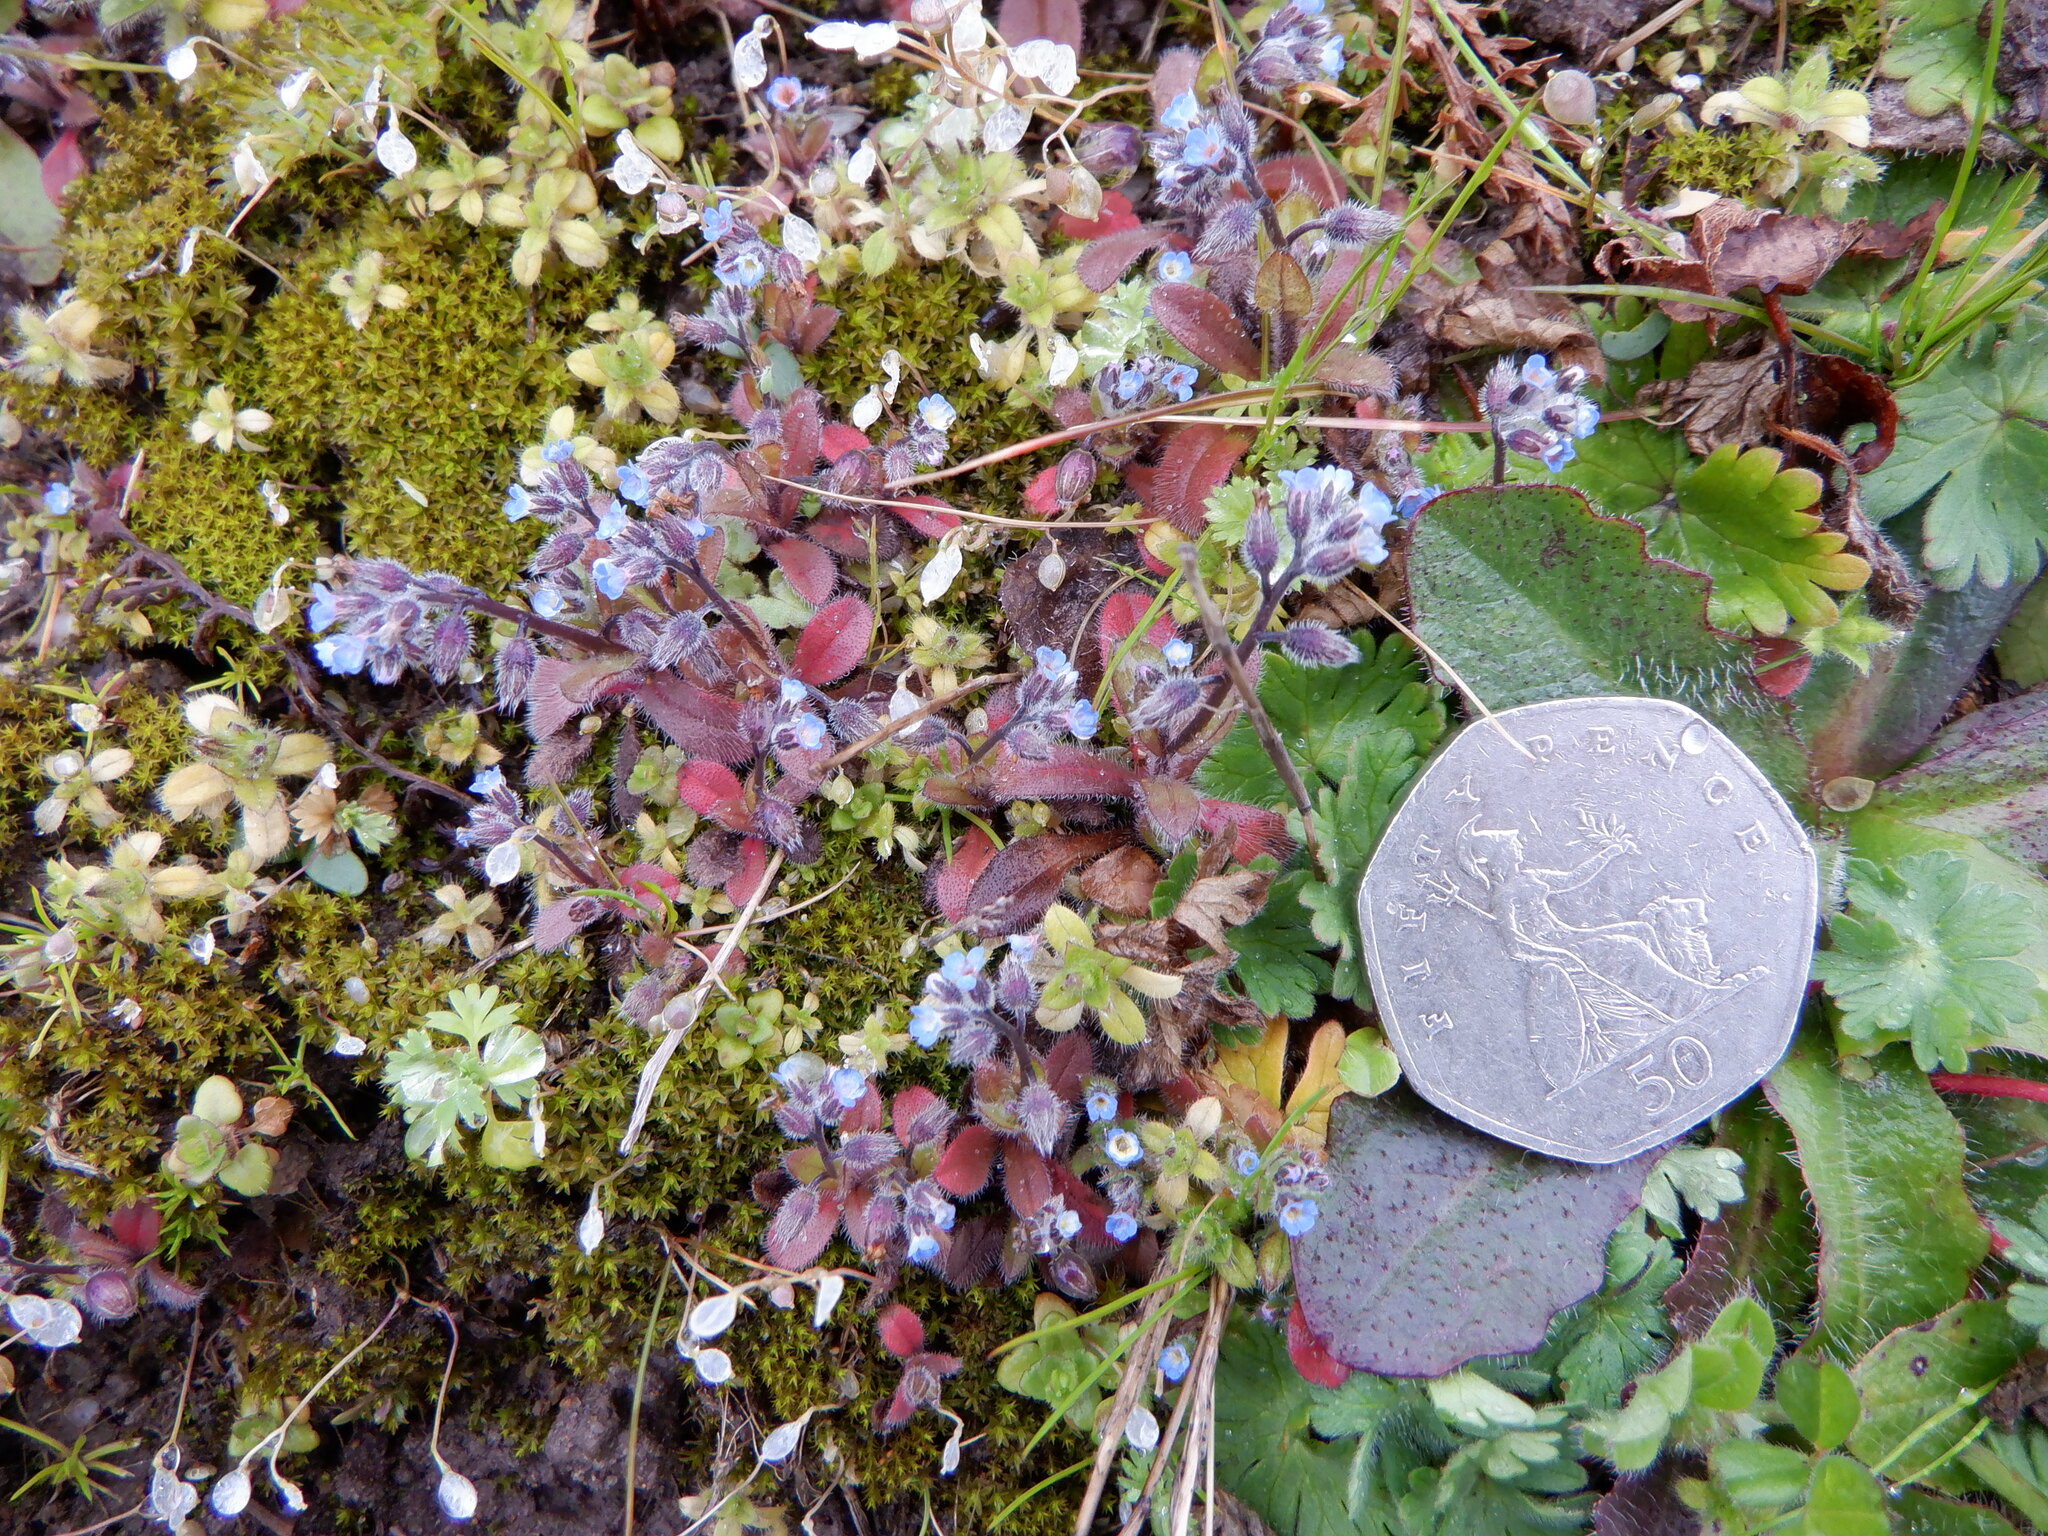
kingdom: Plantae
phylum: Tracheophyta
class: Magnoliopsida
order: Boraginales
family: Boraginaceae
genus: Myosotis
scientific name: Myosotis ramosissima
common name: Early forget-me-not
